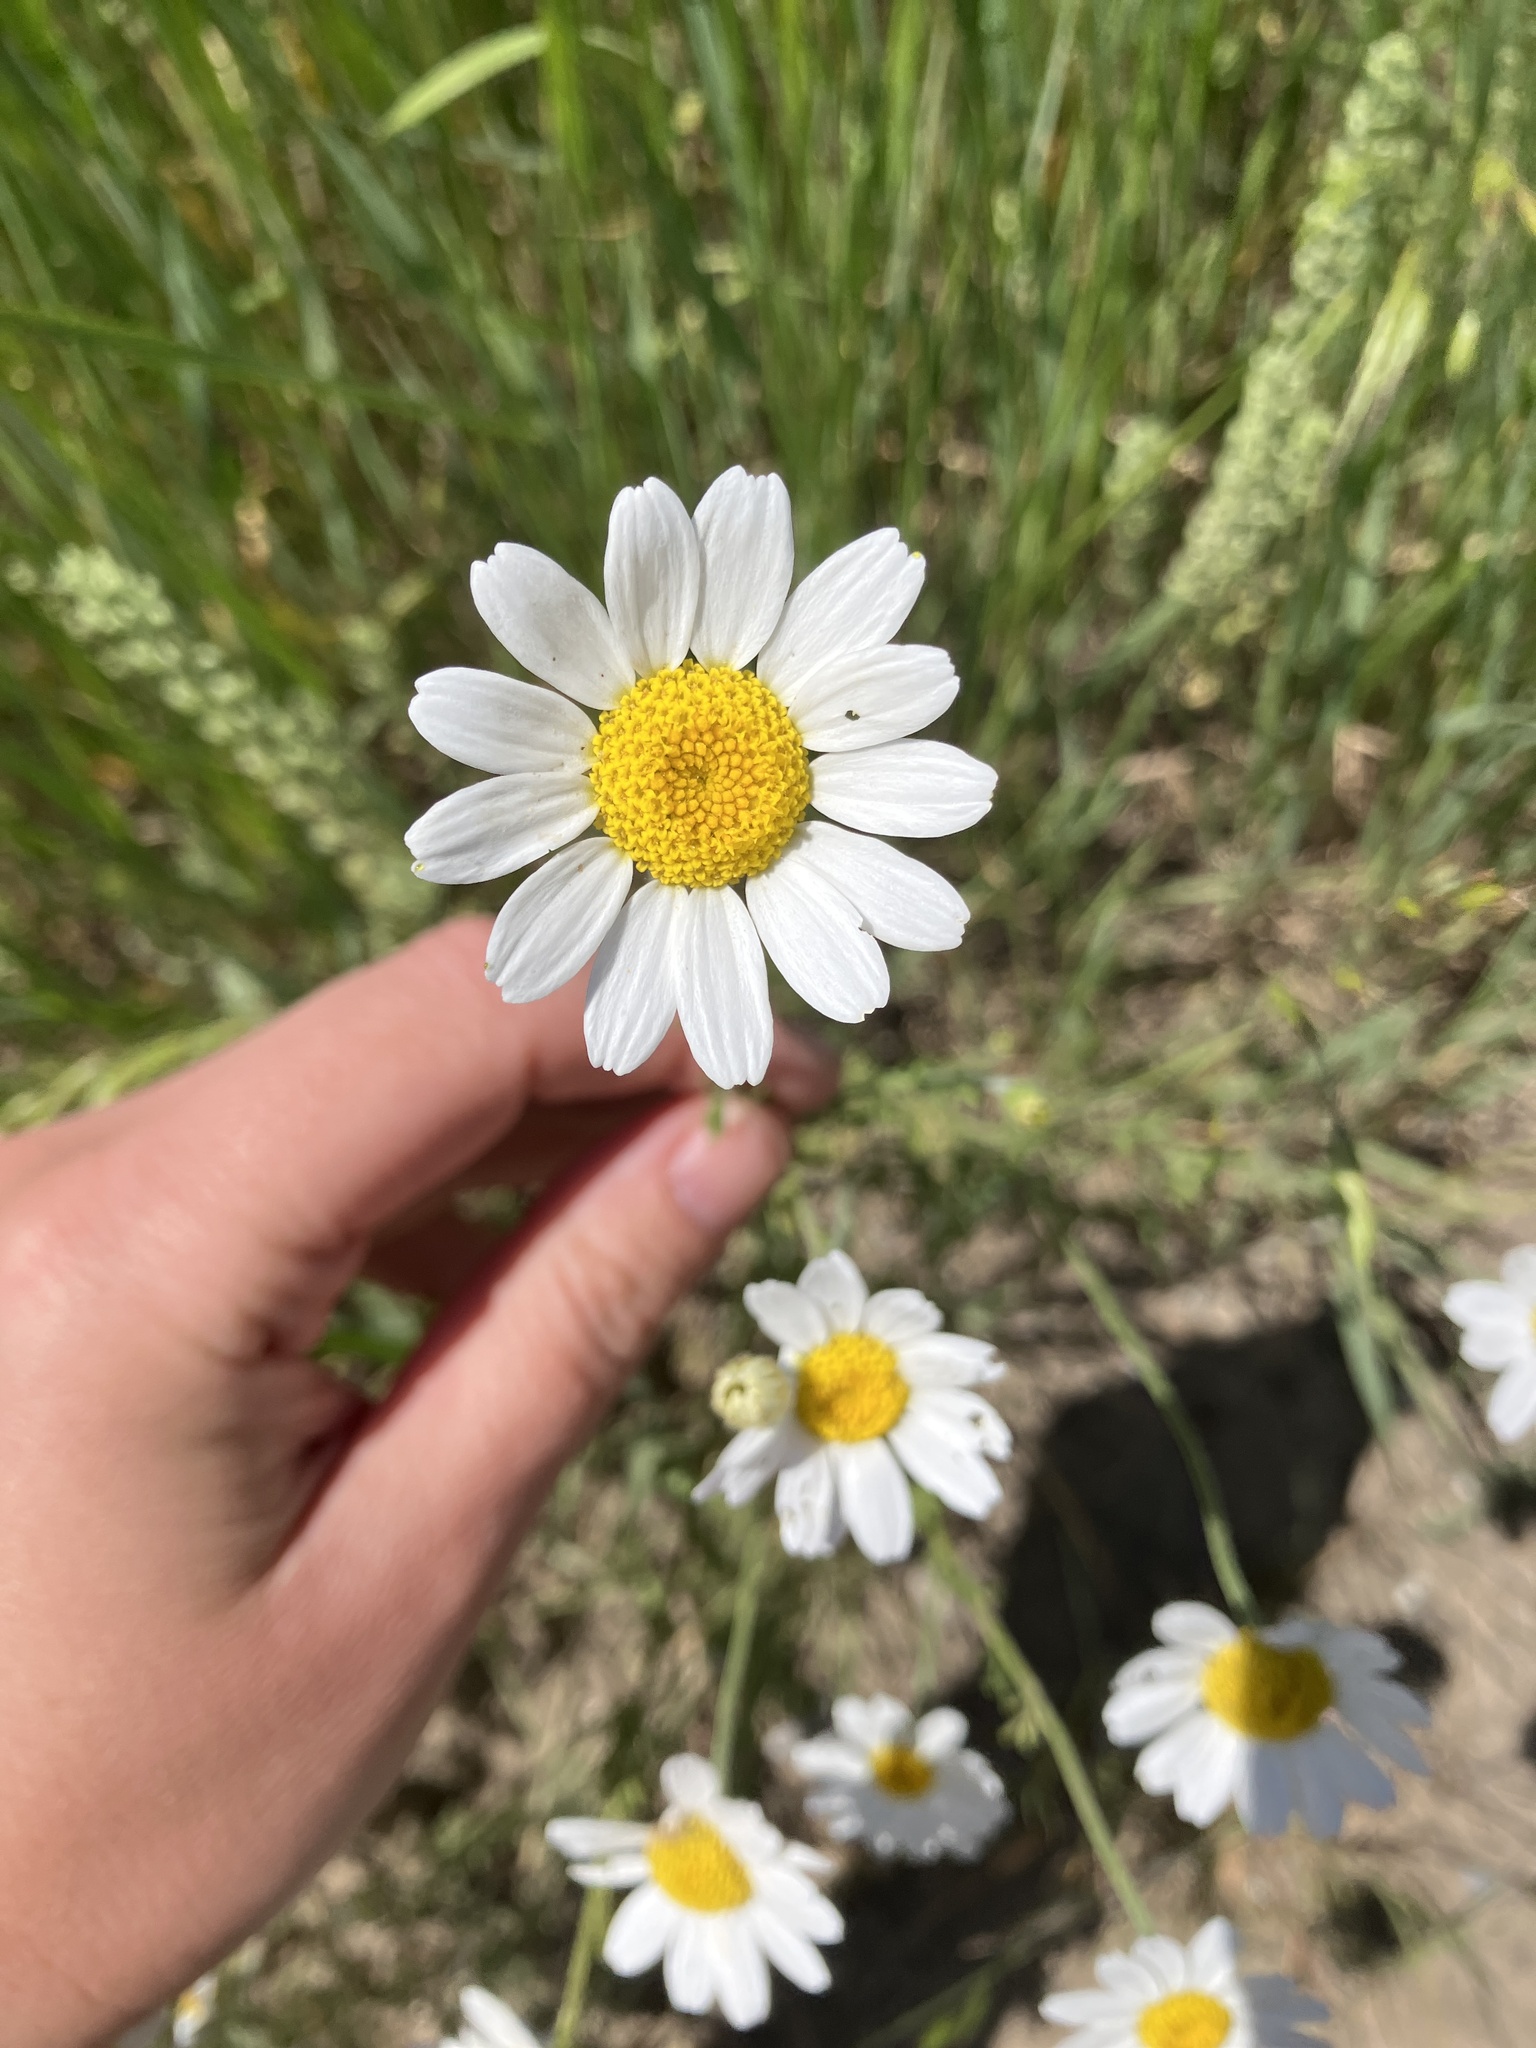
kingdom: Plantae
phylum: Tracheophyta
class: Magnoliopsida
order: Asterales
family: Asteraceae
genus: Cota
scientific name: Cota austriaca
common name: Austrian chamomile
